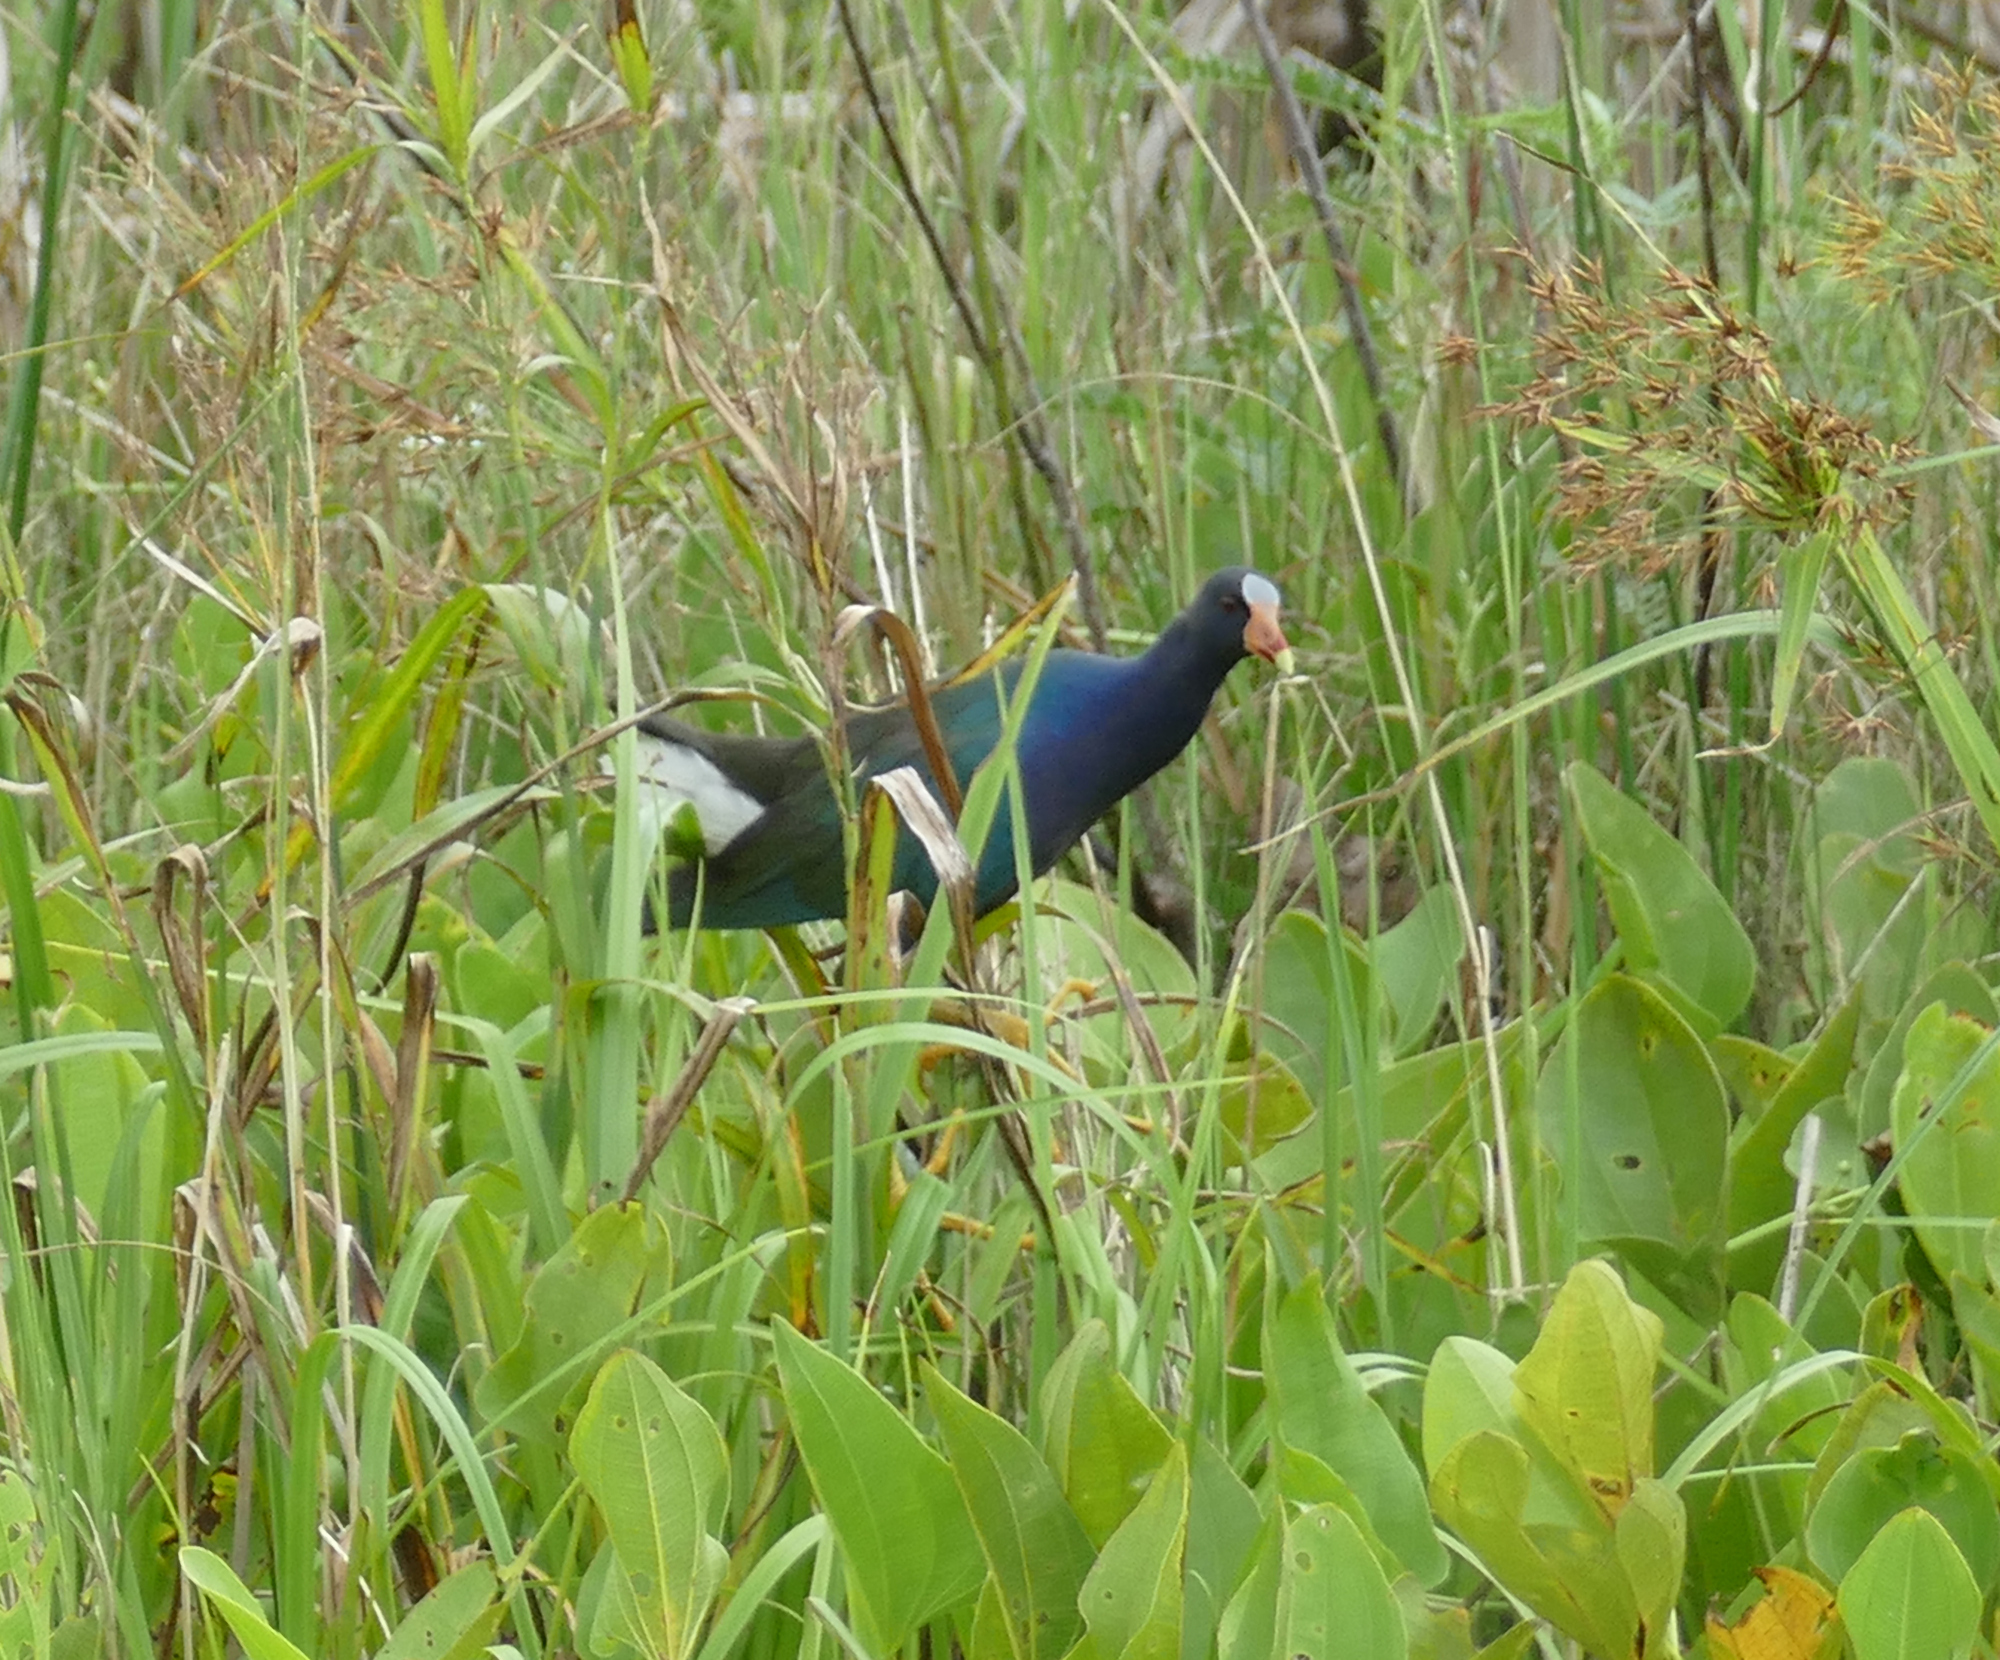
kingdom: Animalia
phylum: Chordata
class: Aves
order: Gruiformes
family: Rallidae
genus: Porphyrio
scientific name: Porphyrio martinica
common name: Purple gallinule
